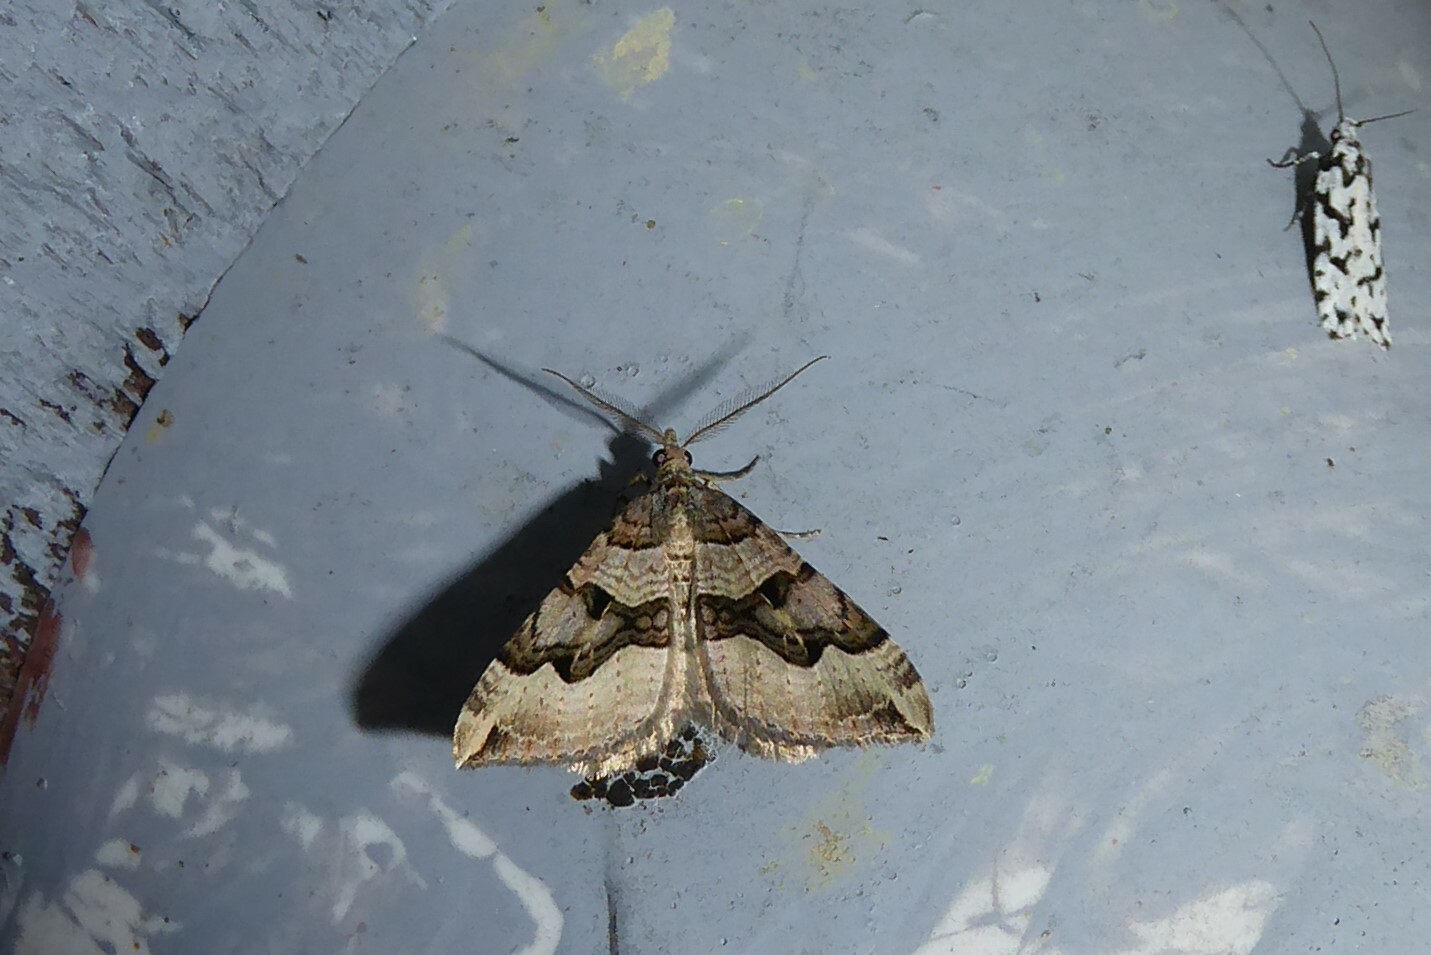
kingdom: Animalia
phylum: Arthropoda
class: Insecta
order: Lepidoptera
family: Geometridae
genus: Xanthorhoe
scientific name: Xanthorhoe semifissata
